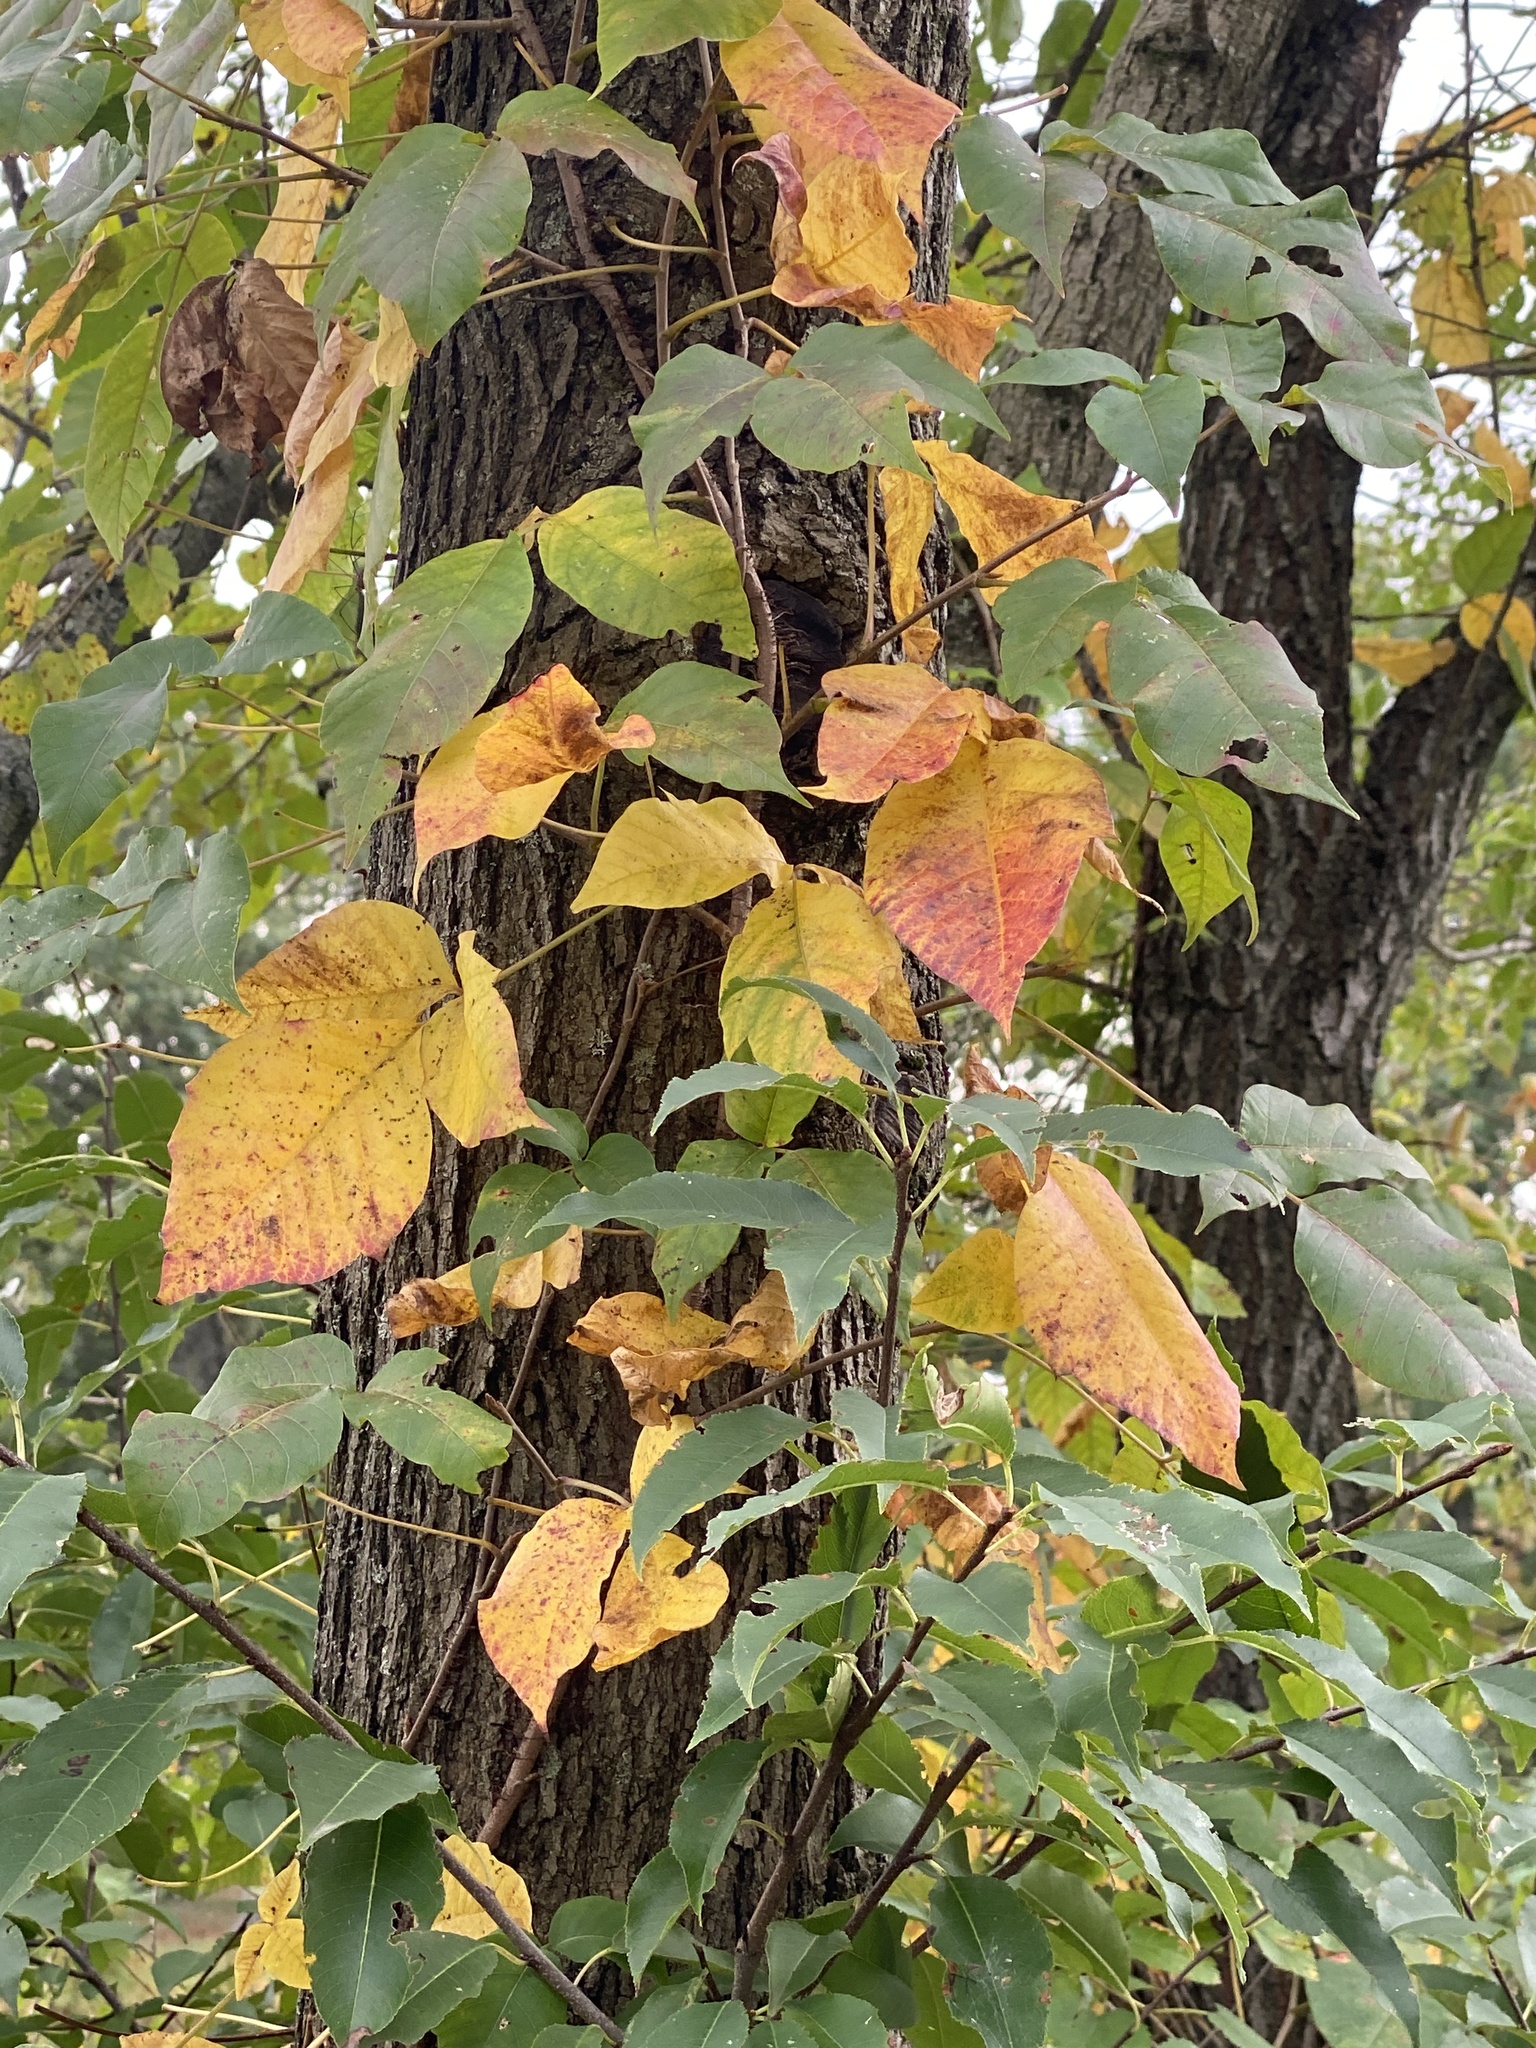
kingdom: Plantae
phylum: Tracheophyta
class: Magnoliopsida
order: Sapindales
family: Anacardiaceae
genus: Toxicodendron
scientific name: Toxicodendron radicans
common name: Poison ivy
